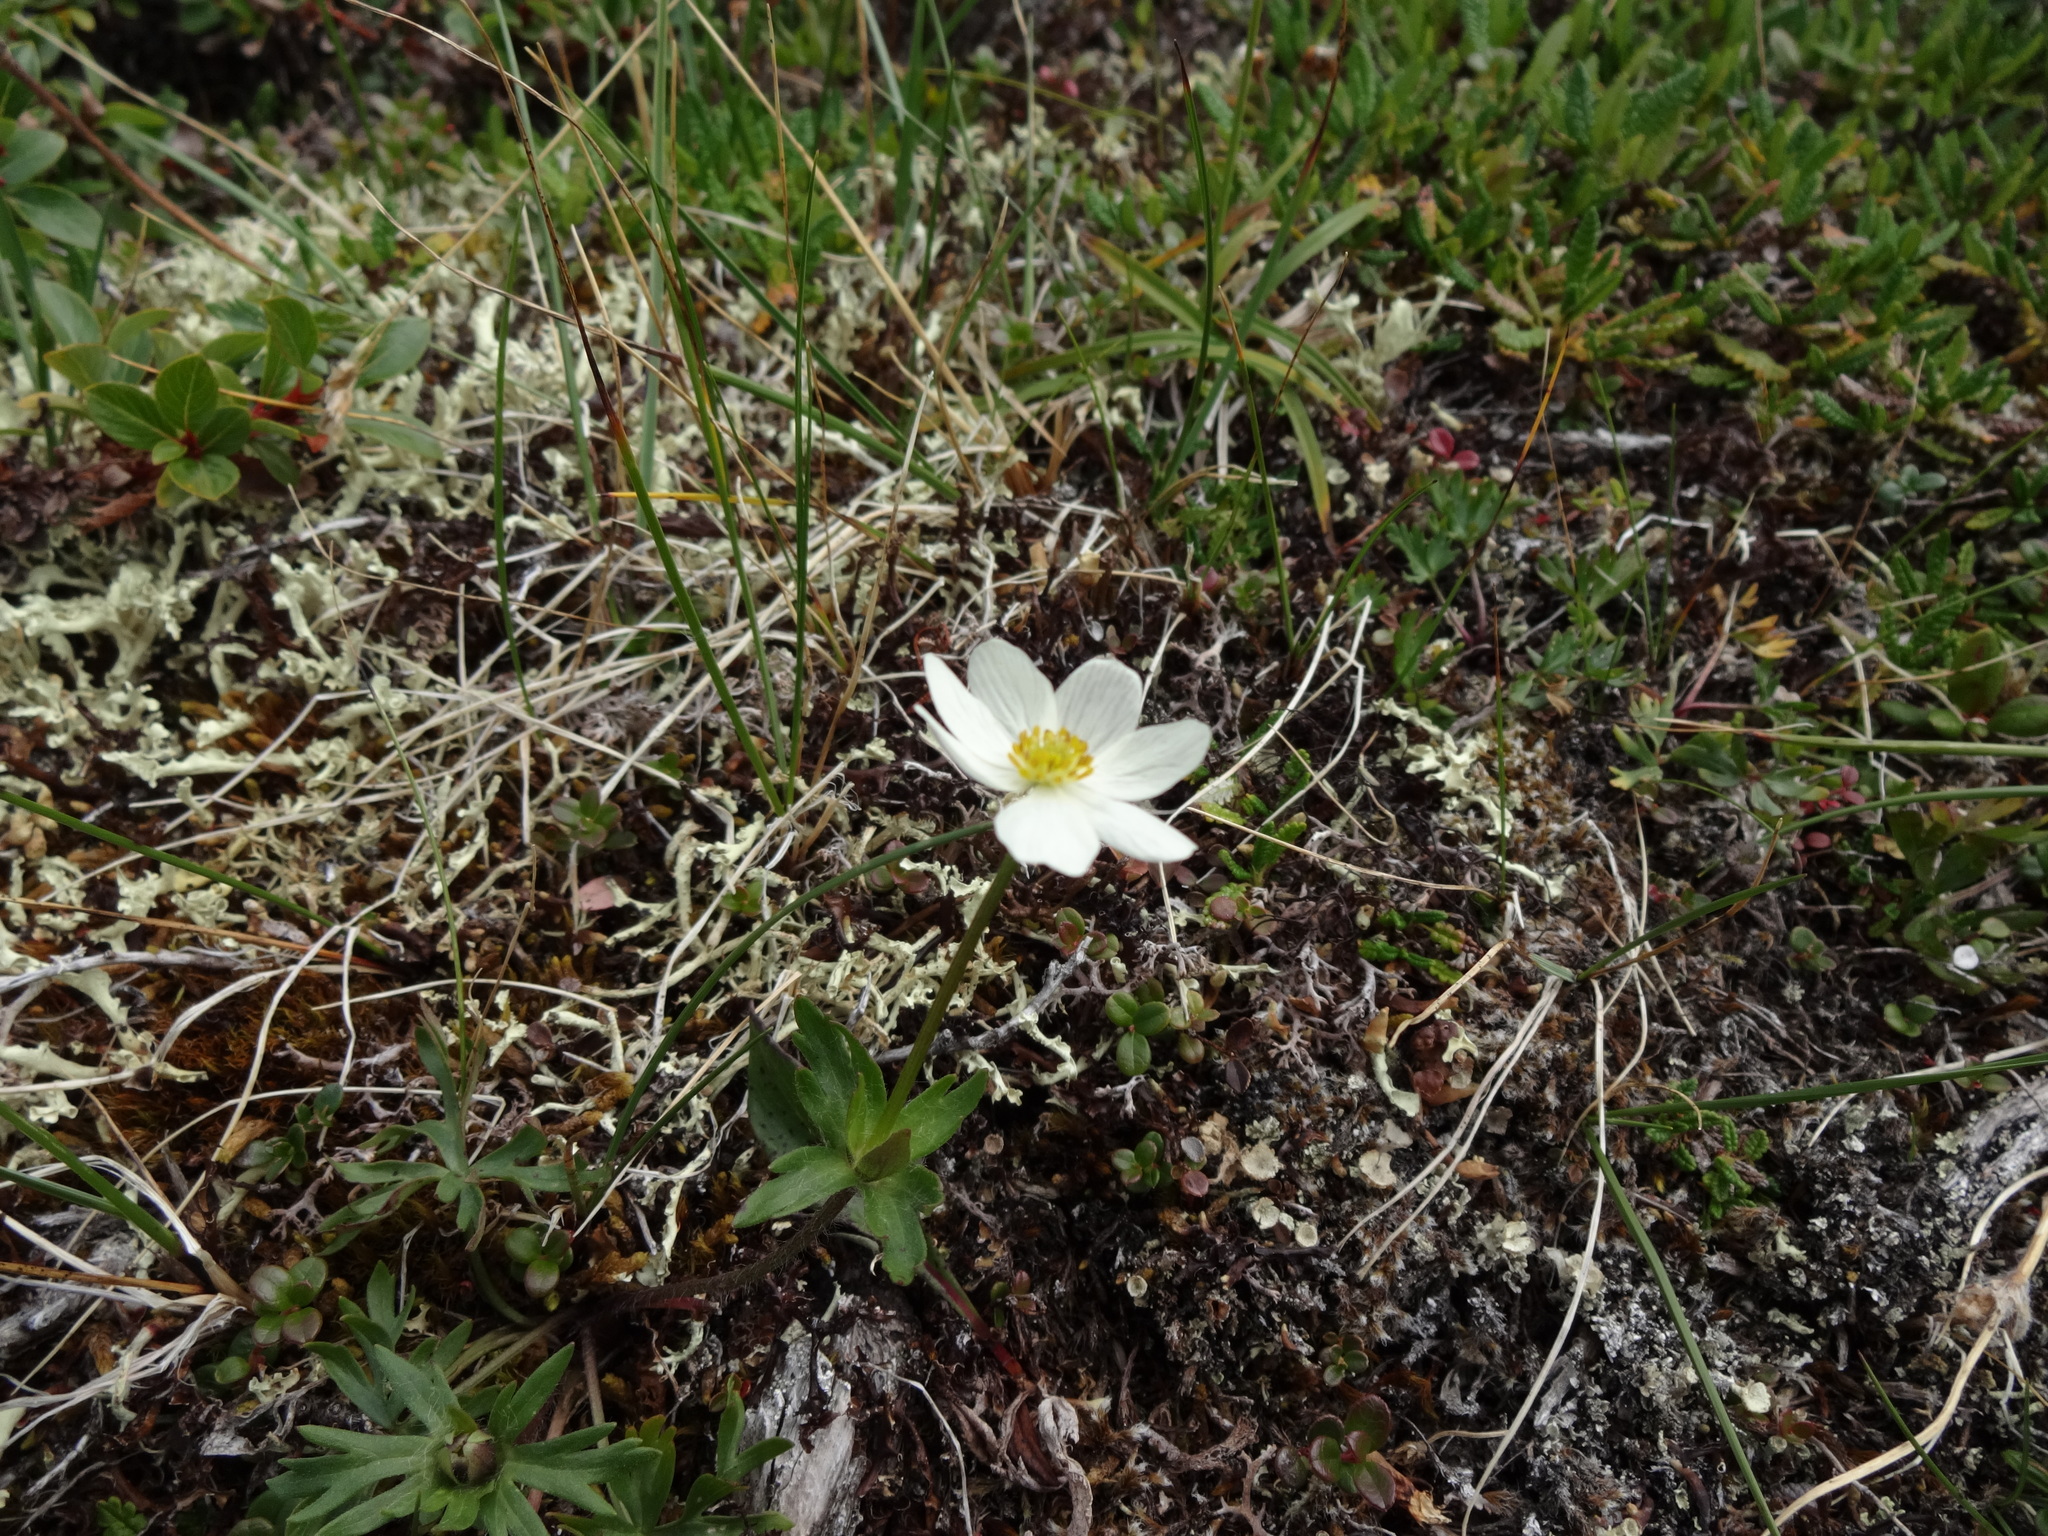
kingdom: Plantae
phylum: Tracheophyta
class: Magnoliopsida
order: Ranunculales
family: Ranunculaceae
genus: Anemonastrum
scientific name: Anemonastrum narcissiflorum
